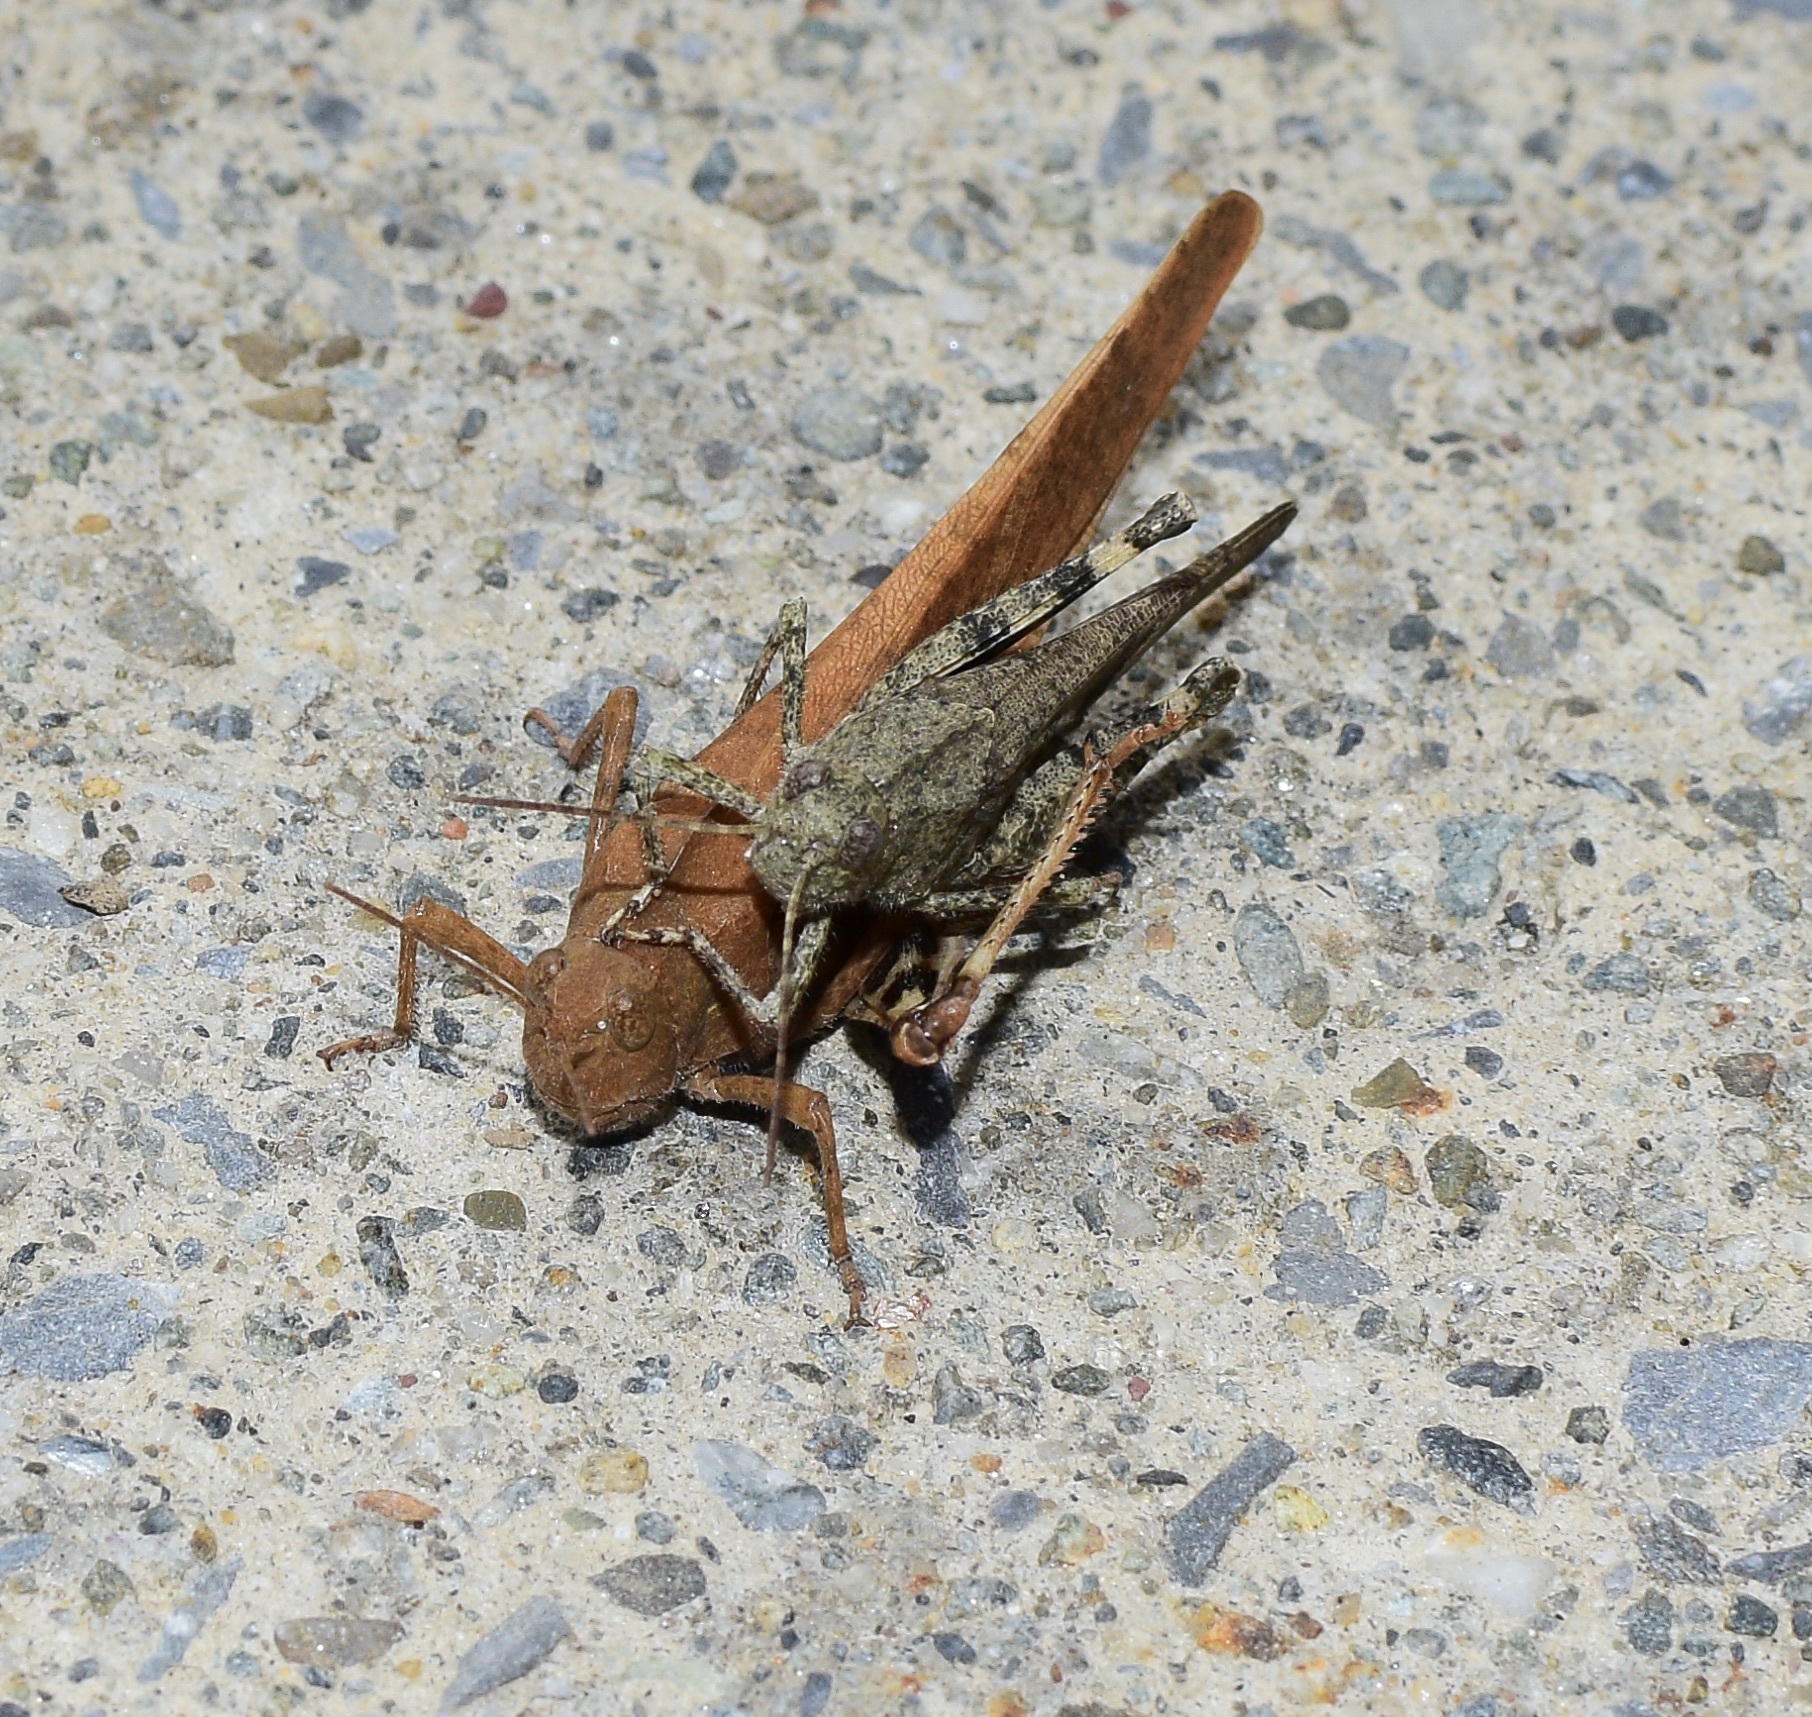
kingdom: Animalia
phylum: Arthropoda
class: Insecta
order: Orthoptera
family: Acrididae
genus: Dissosteira
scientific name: Dissosteira carolina
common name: Carolina grasshopper
